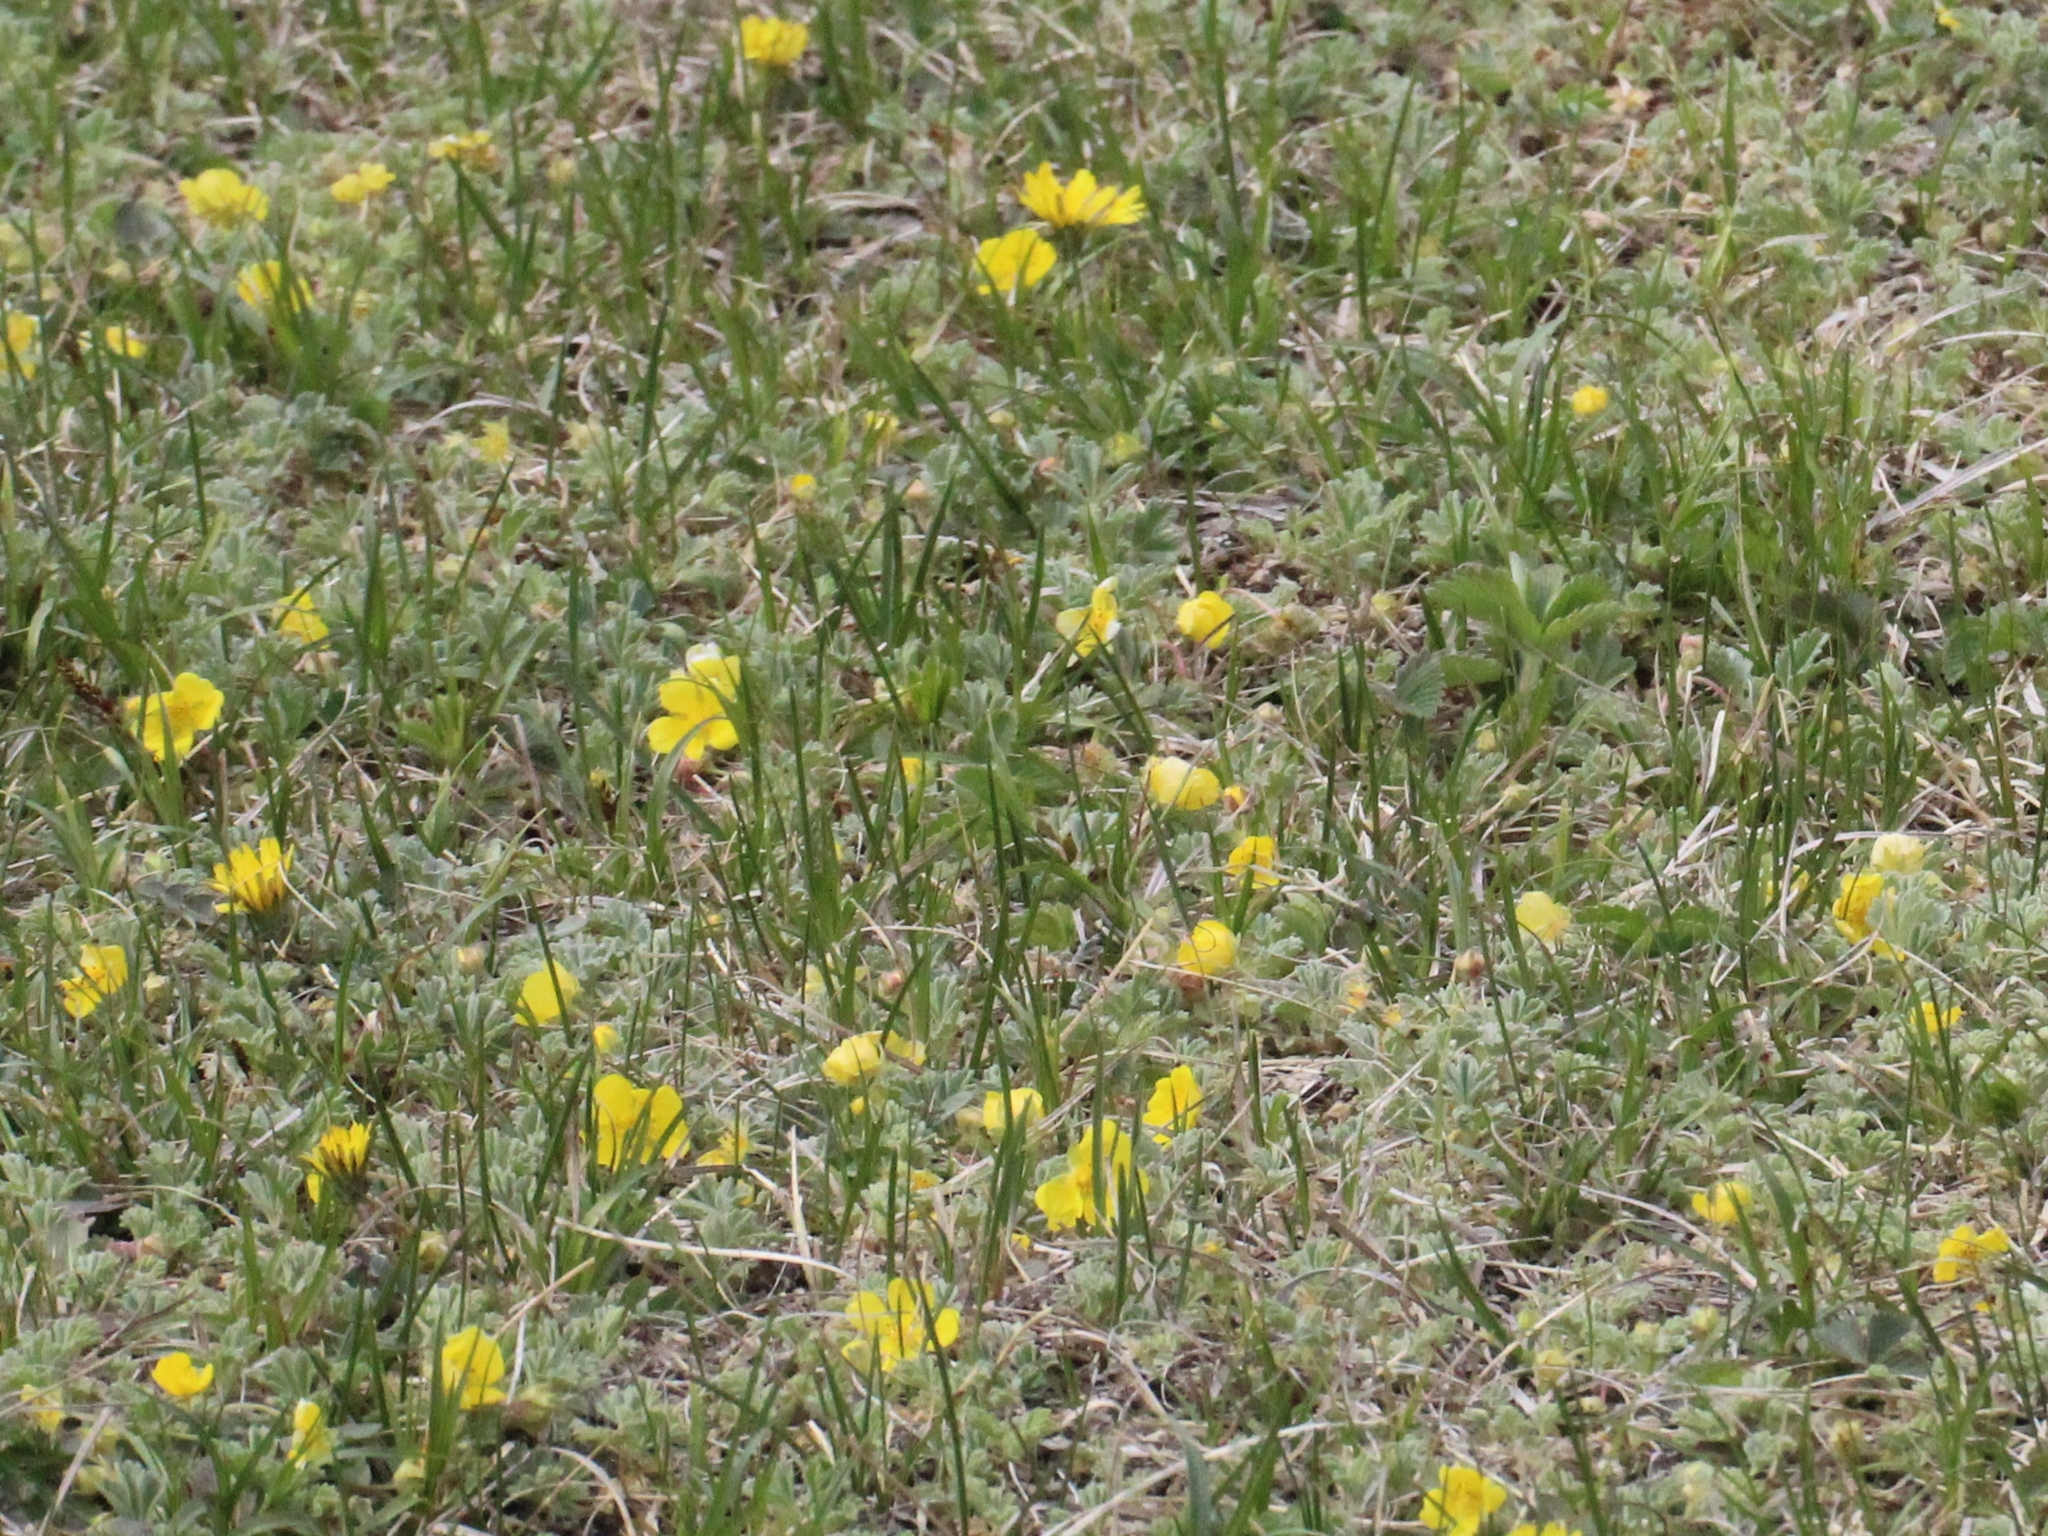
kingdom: Plantae
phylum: Tracheophyta
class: Magnoliopsida
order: Rosales
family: Rosaceae
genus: Potentilla
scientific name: Potentilla acaulis
